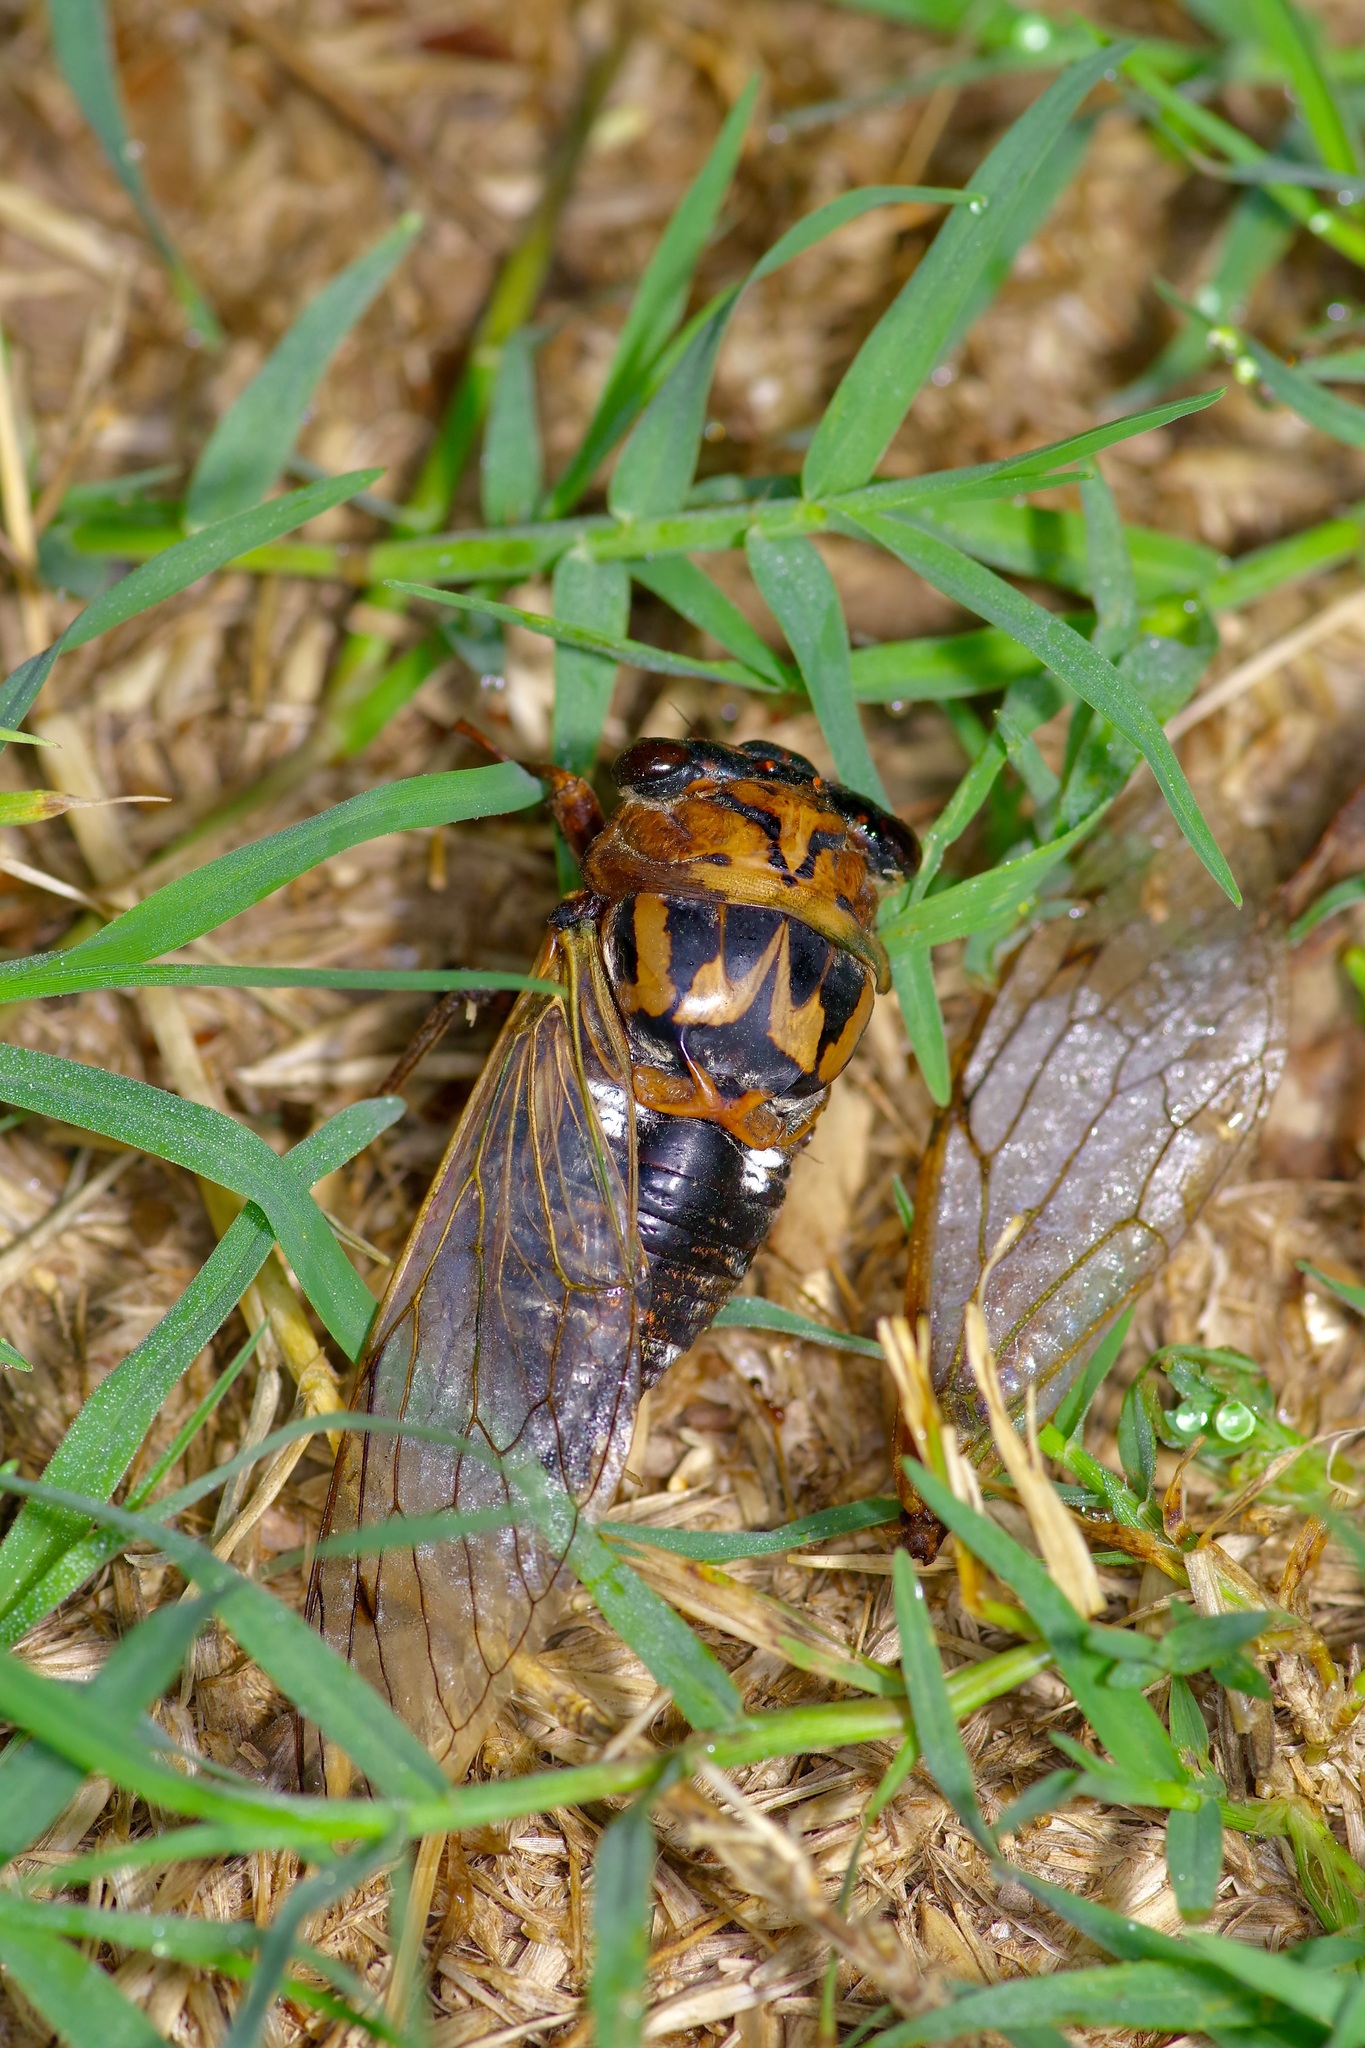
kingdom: Animalia
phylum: Arthropoda
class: Insecta
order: Hemiptera
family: Cicadidae
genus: Megatibicen
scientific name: Megatibicen resh
